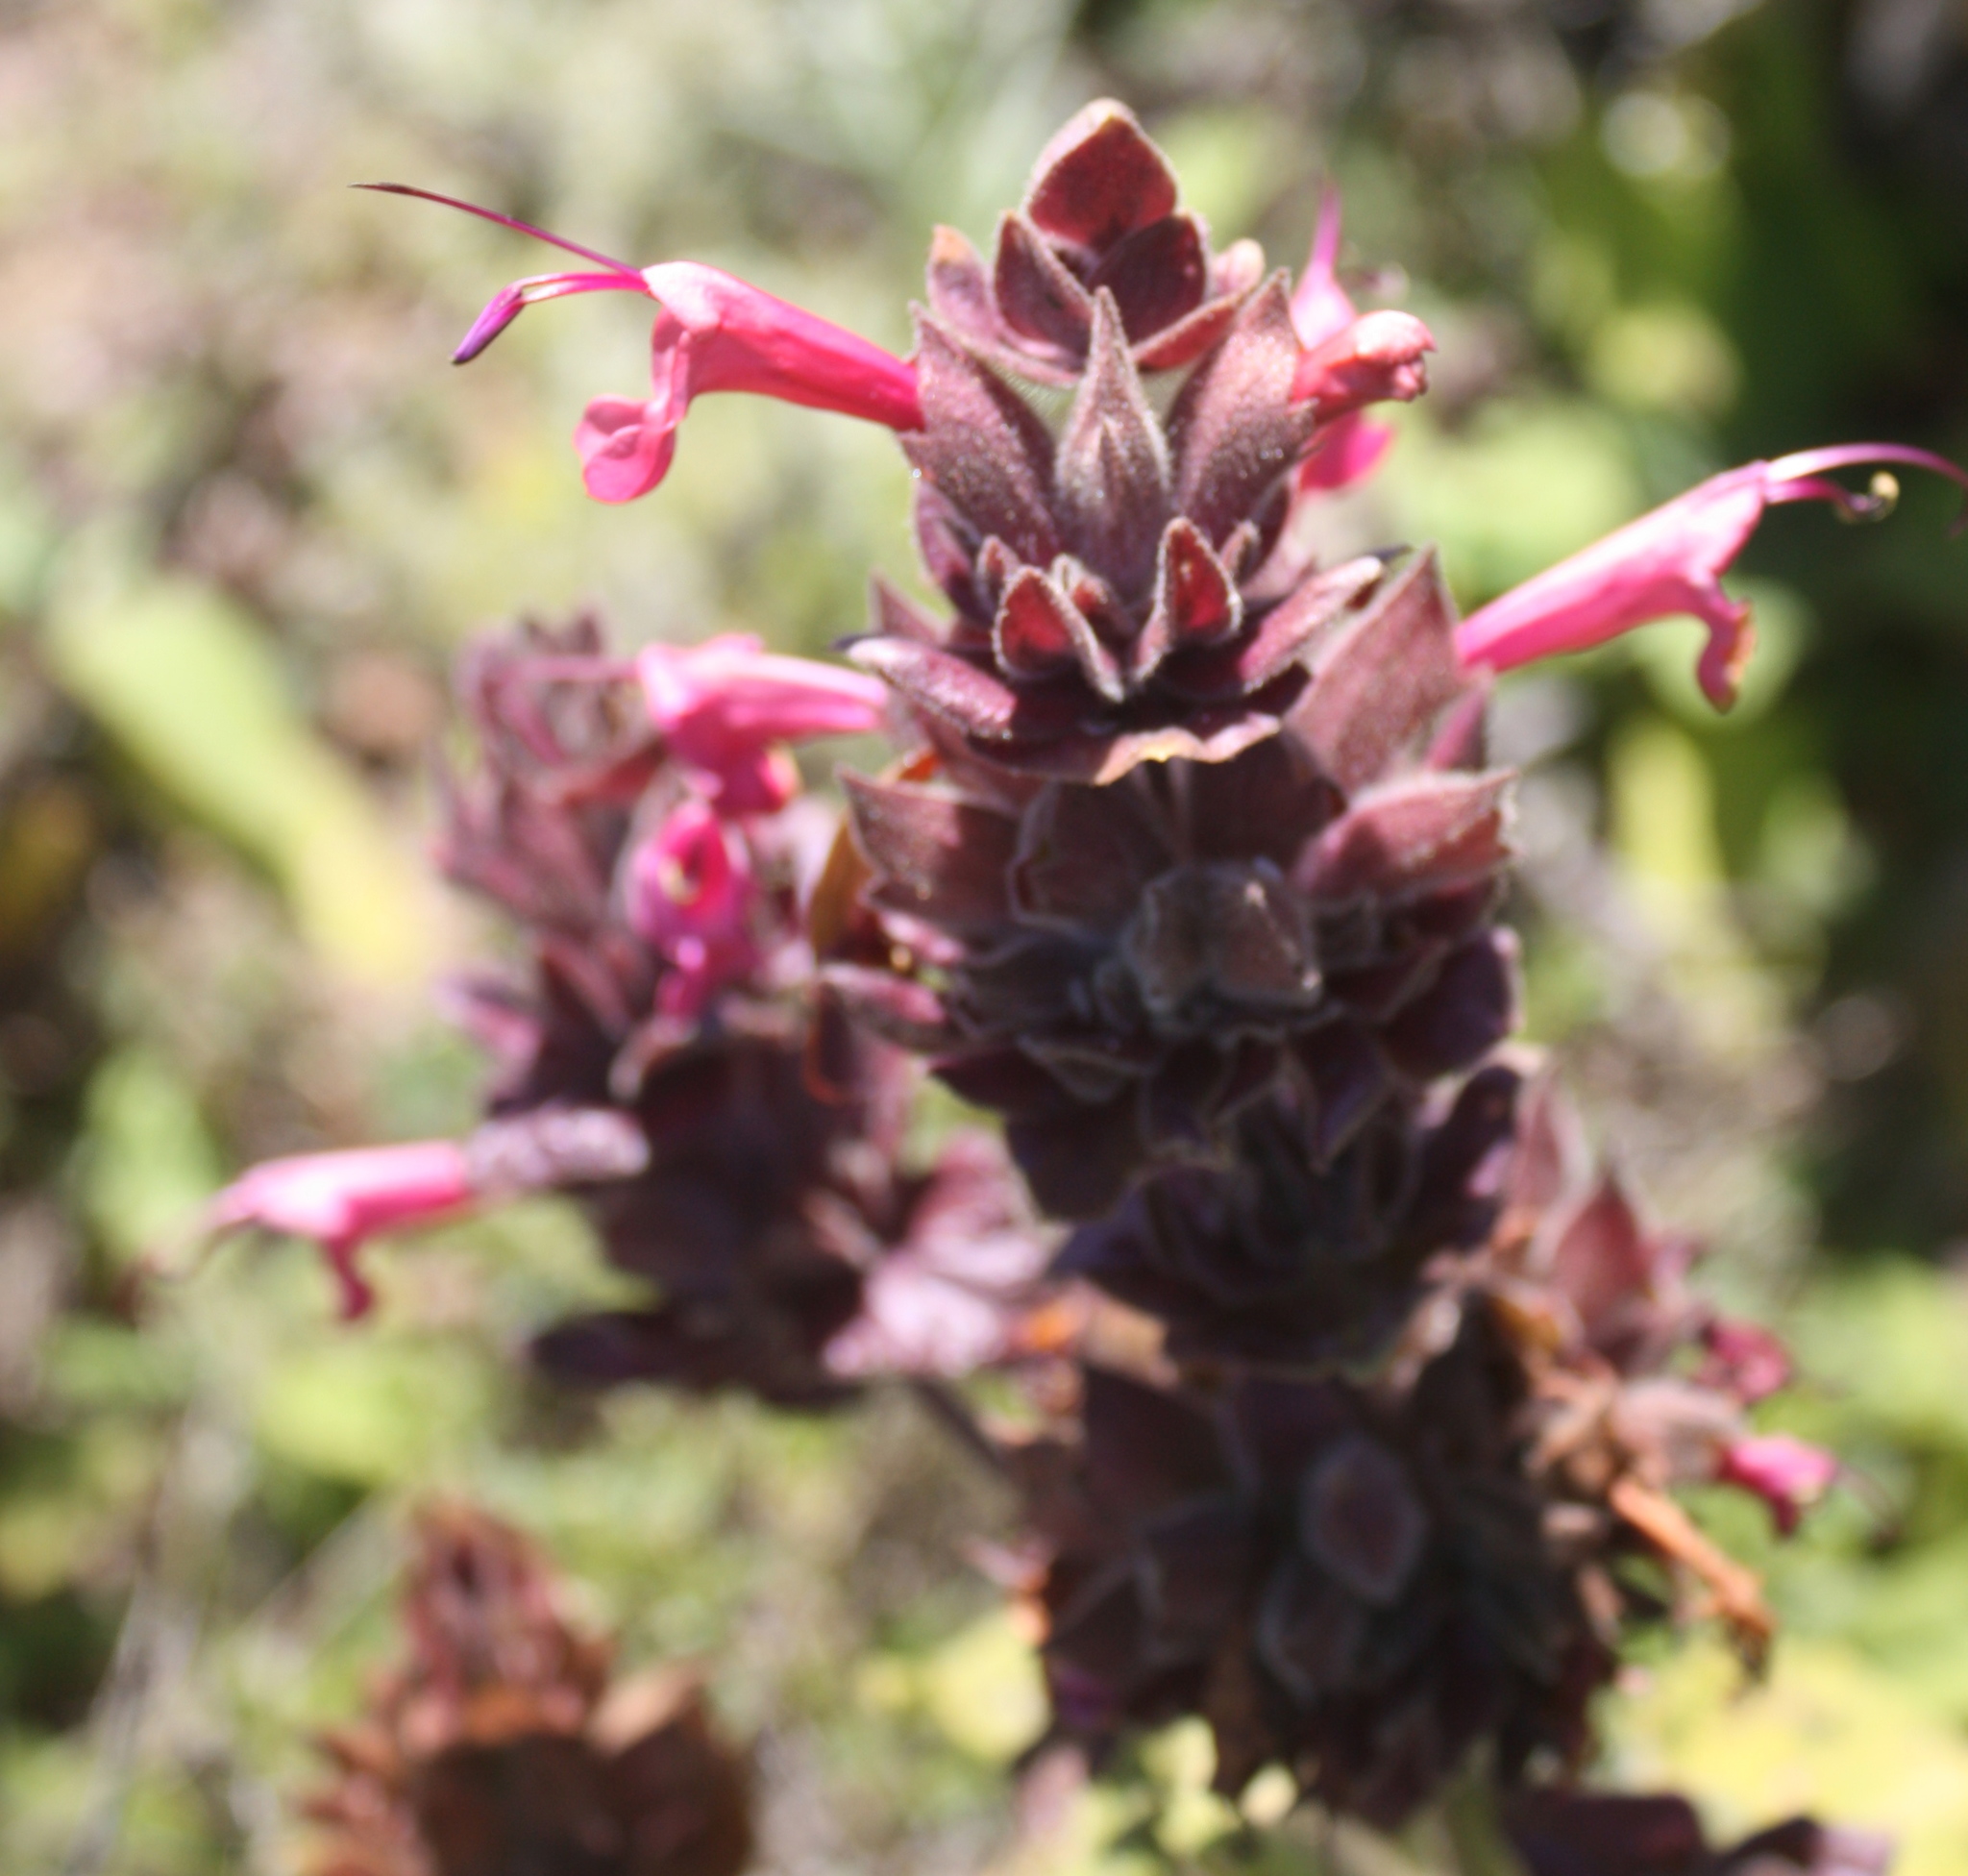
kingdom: Plantae
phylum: Tracheophyta
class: Magnoliopsida
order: Lamiales
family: Lamiaceae
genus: Salvia
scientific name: Salvia spathacea
